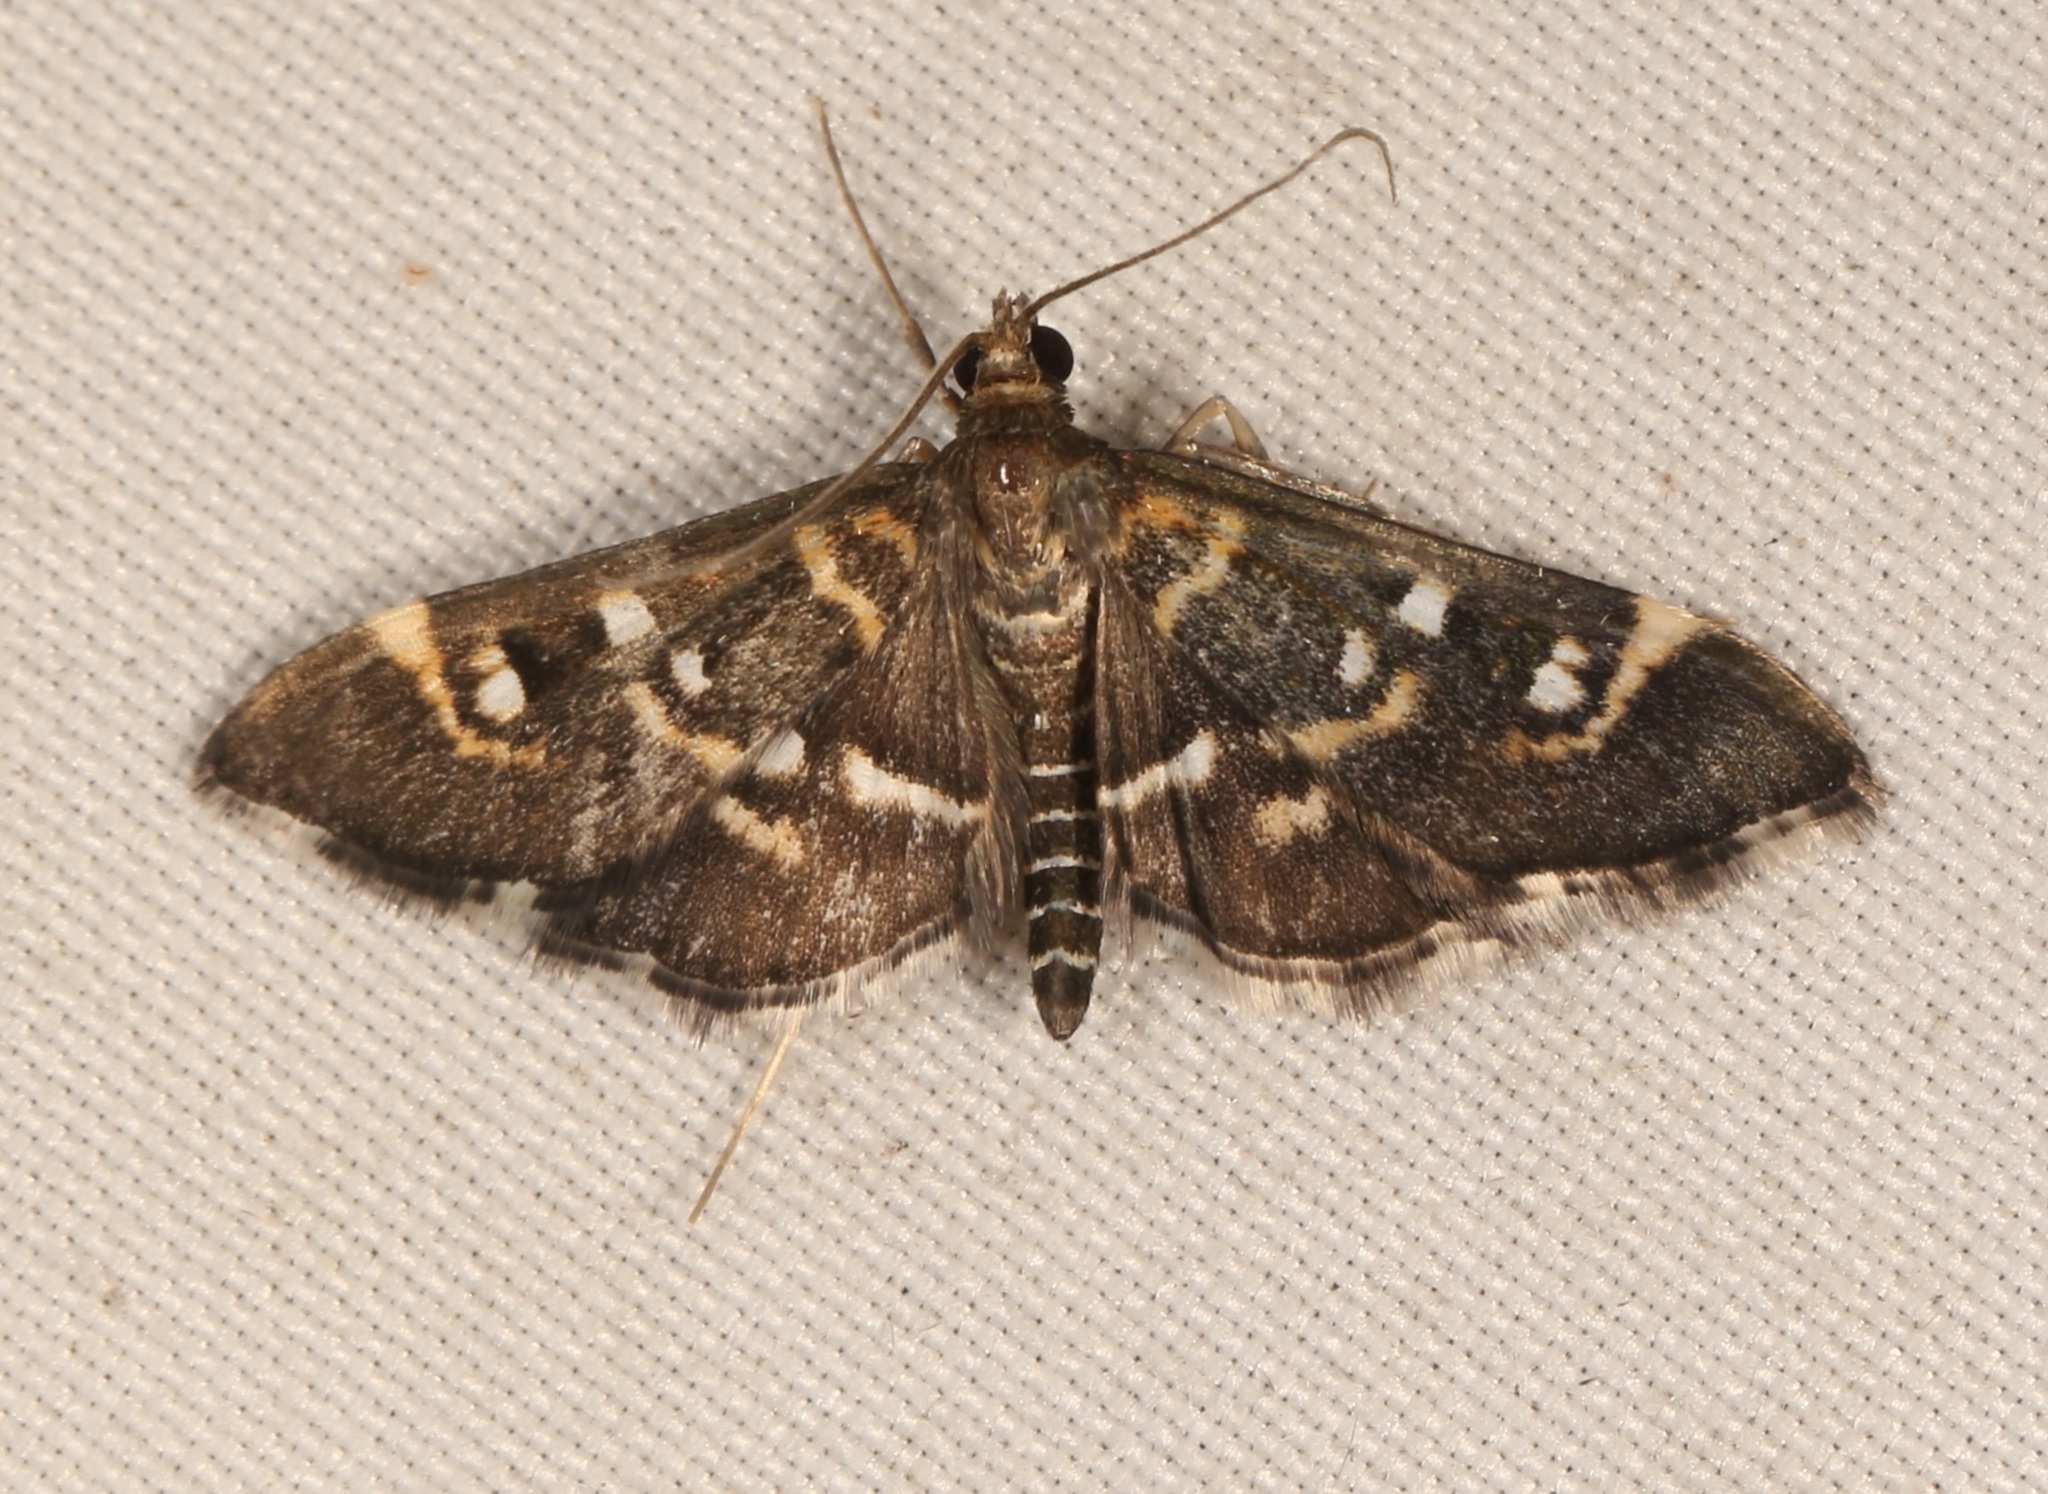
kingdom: Animalia
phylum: Arthropoda
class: Insecta
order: Lepidoptera
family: Crambidae
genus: Diathrausta
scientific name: Diathrausta harlequinalis
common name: Harlequin webworm moth
